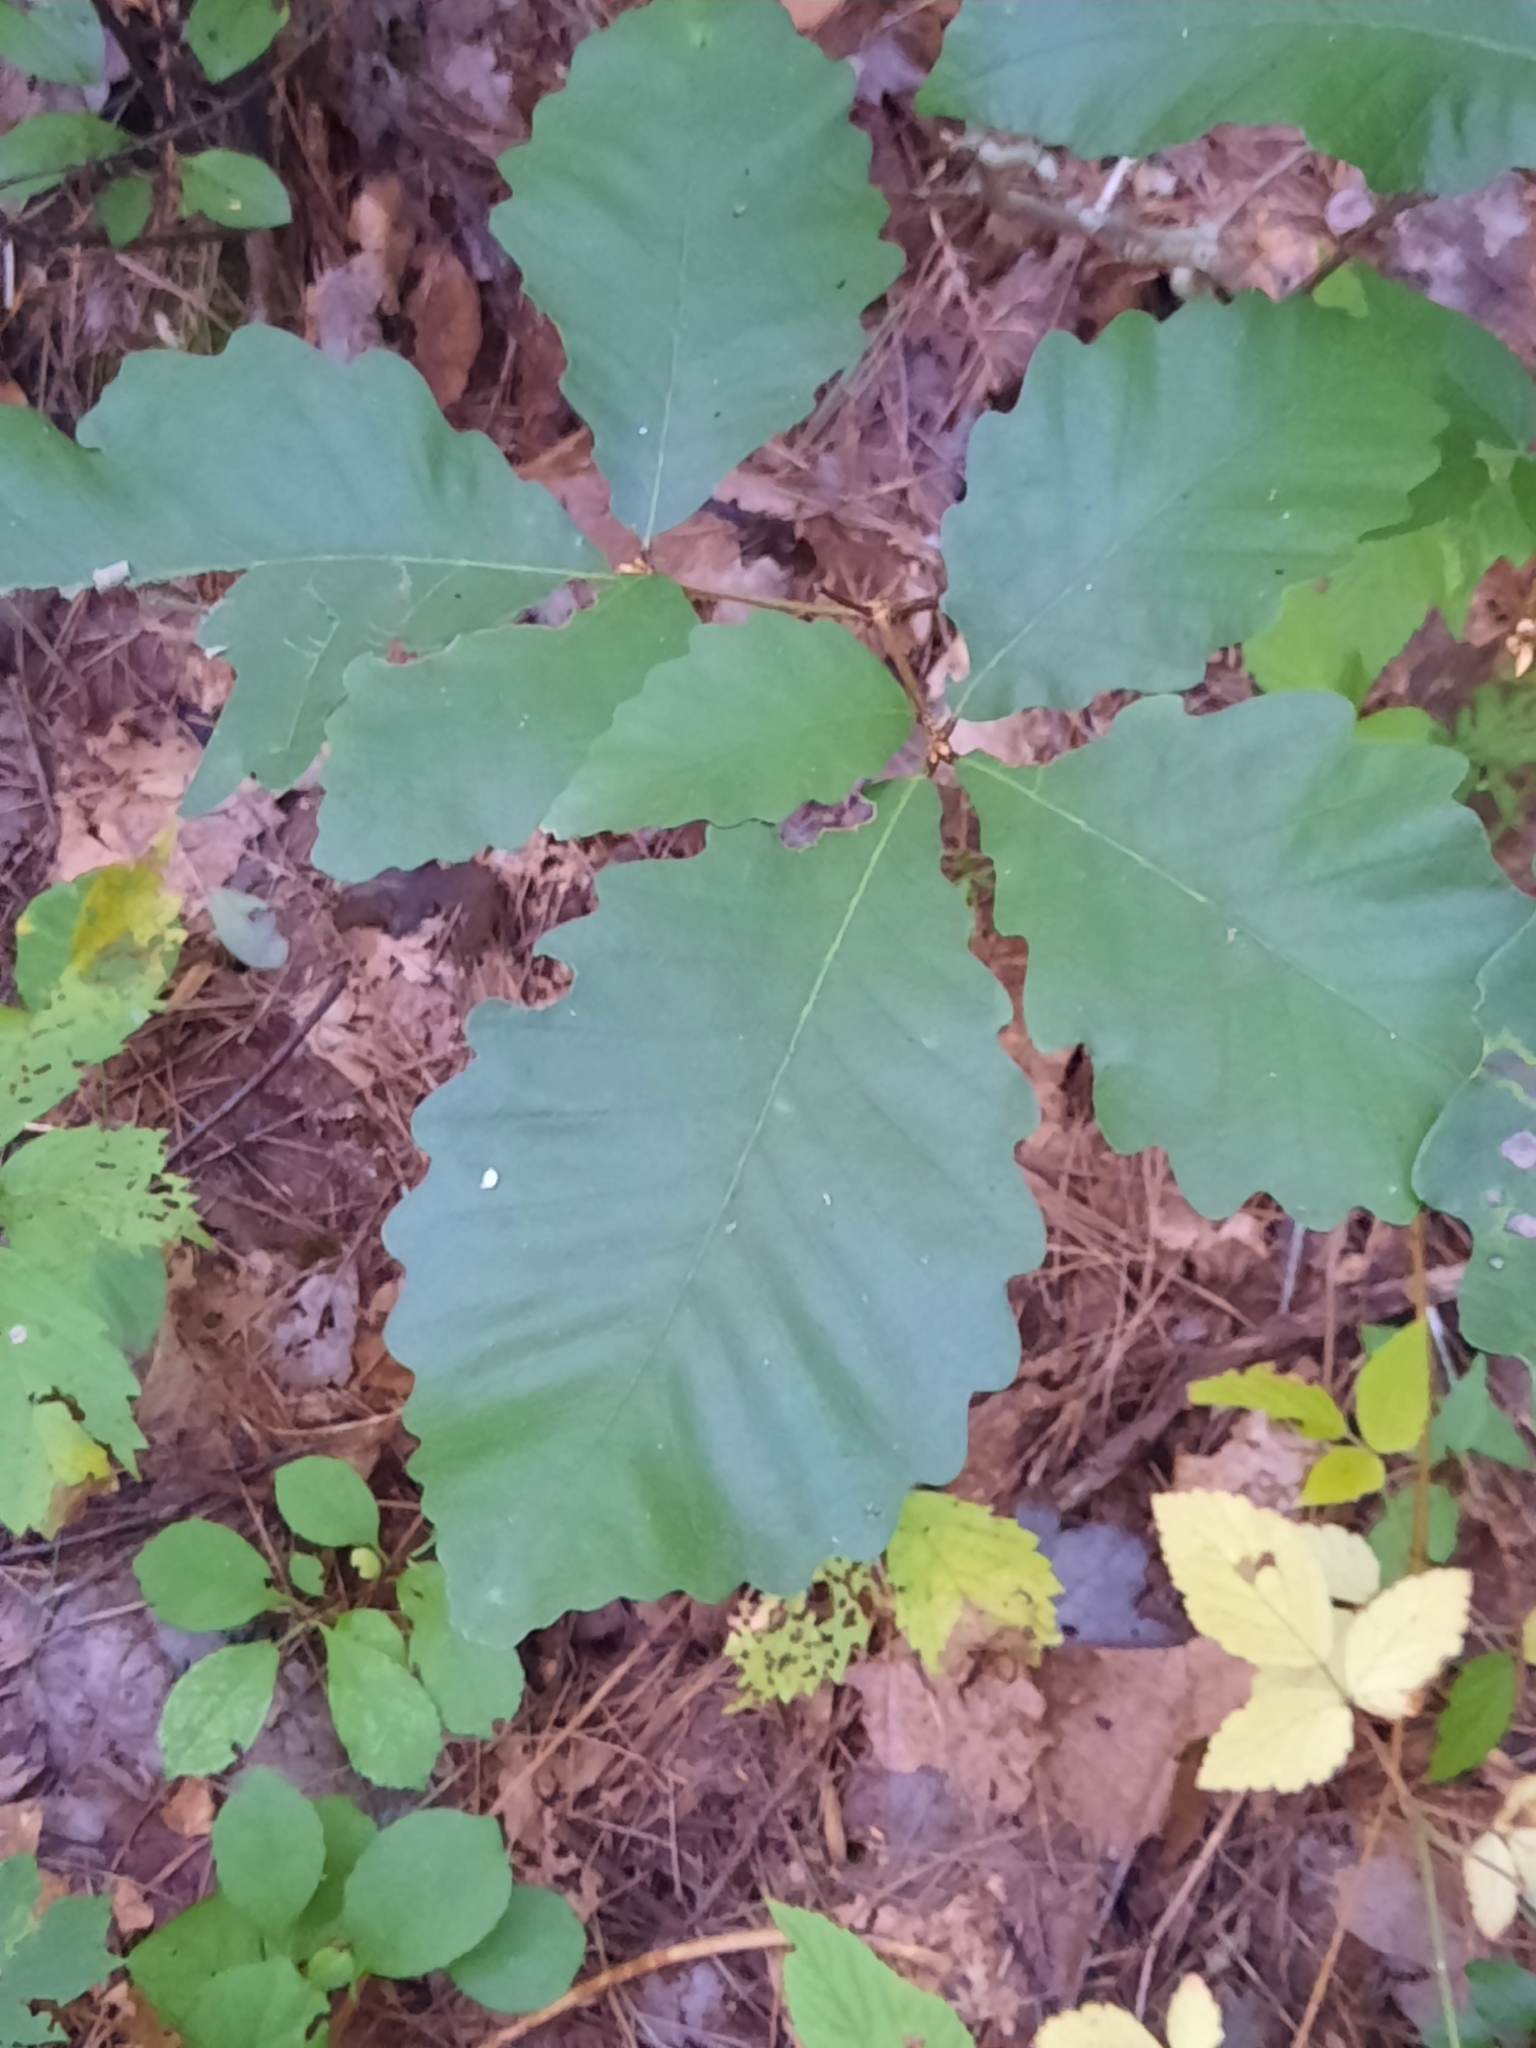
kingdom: Plantae
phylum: Tracheophyta
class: Magnoliopsida
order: Fagales
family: Fagaceae
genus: Quercus
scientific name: Quercus montana
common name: Chestnut oak
